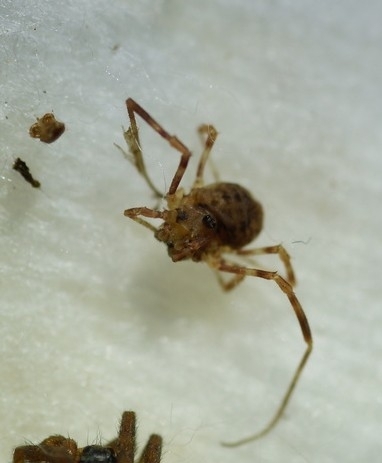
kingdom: Animalia
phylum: Arthropoda
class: Arachnida
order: Opiliones
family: Phalangiidae
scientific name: Phalangiidae
